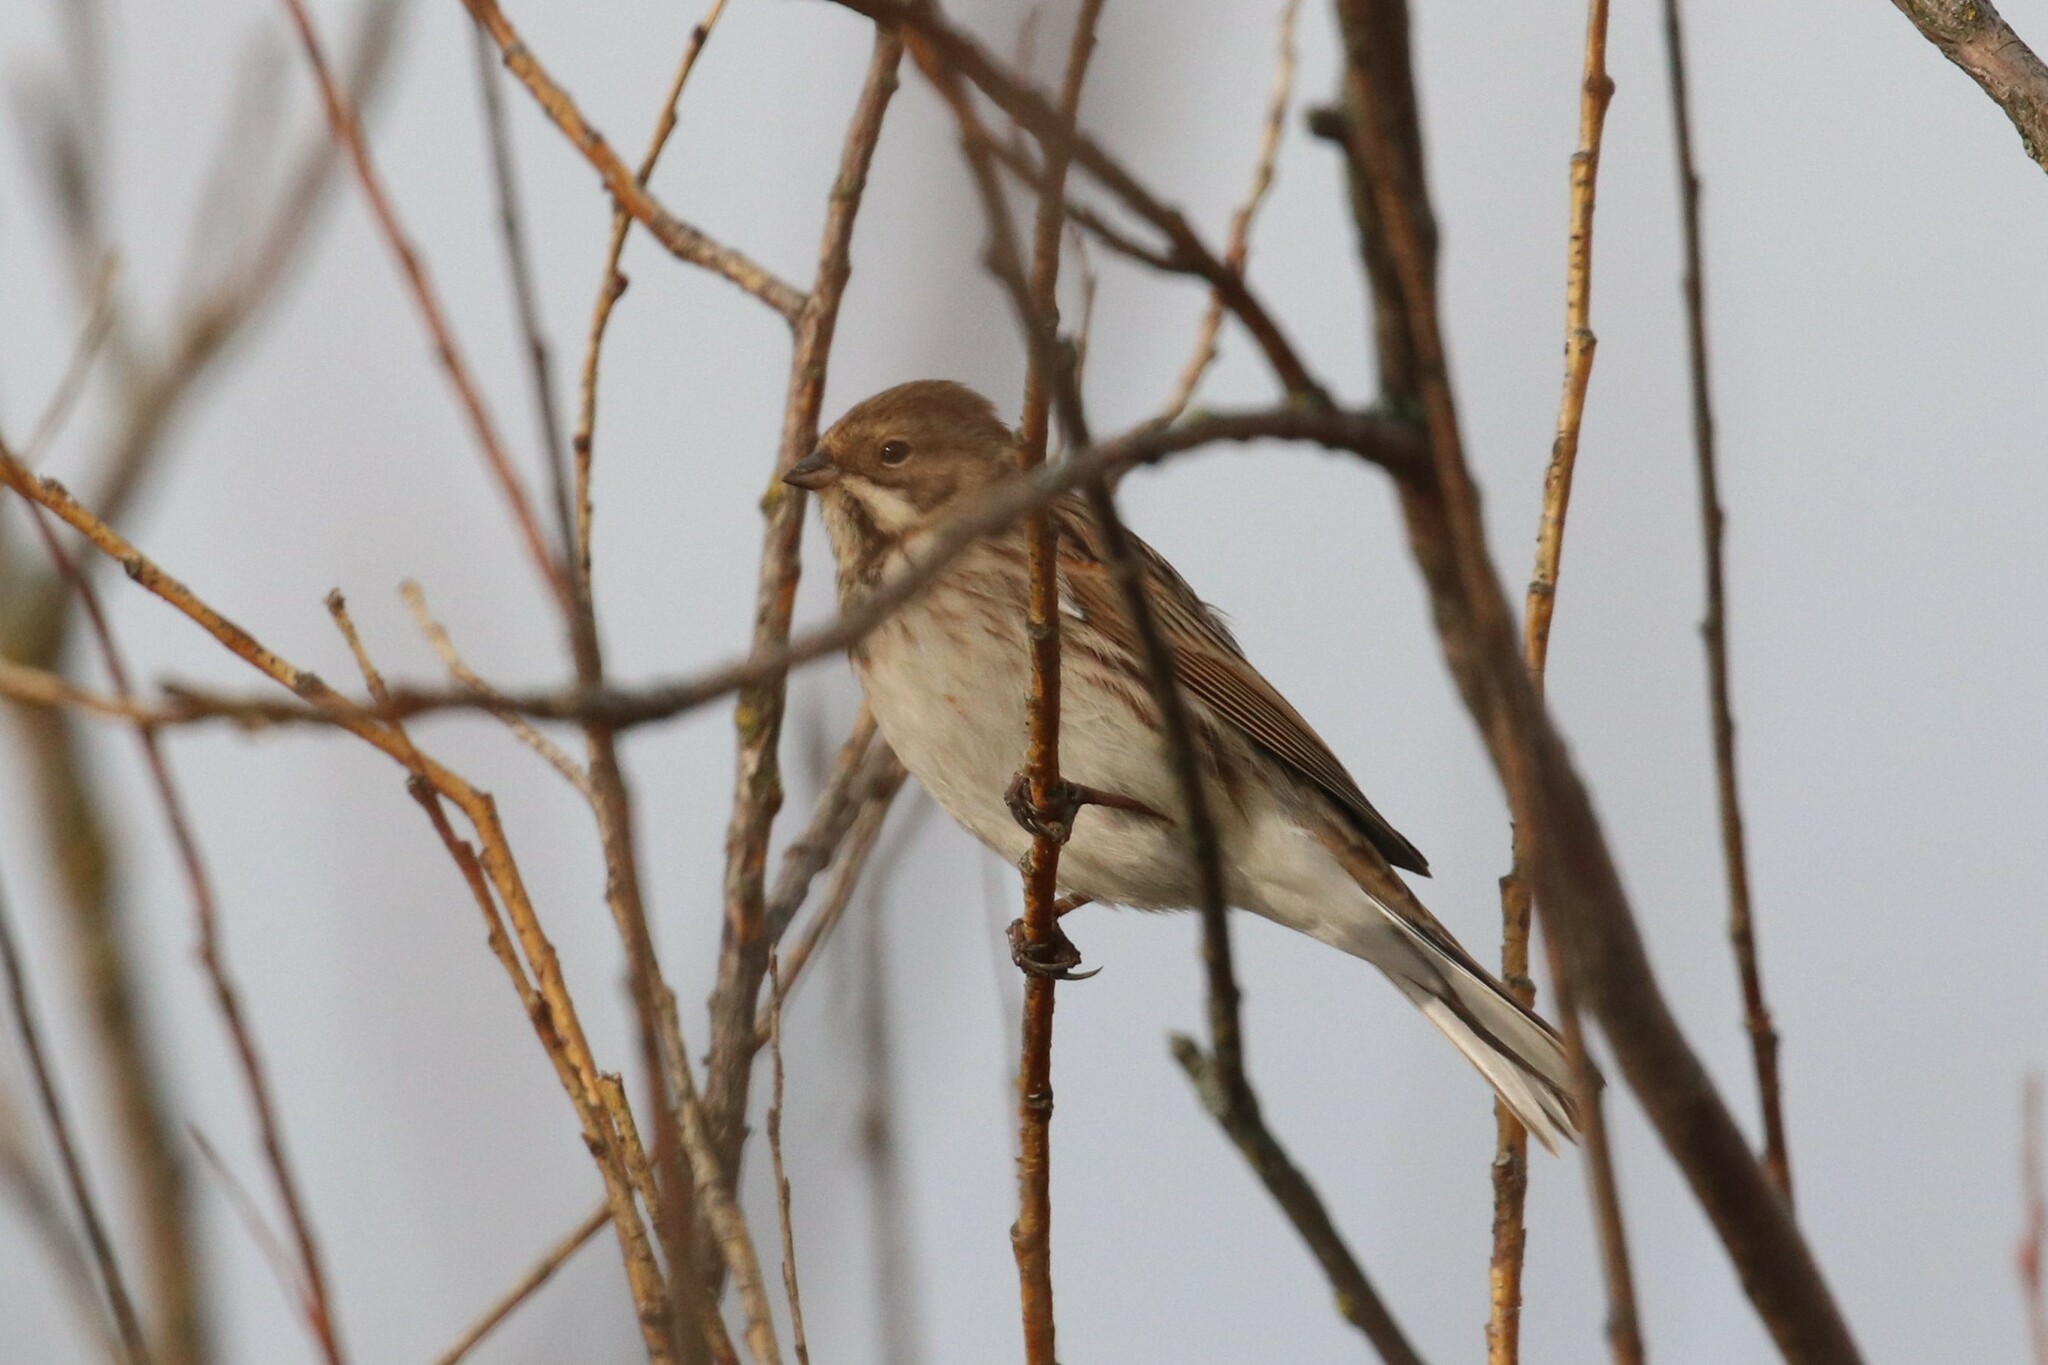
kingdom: Animalia
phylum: Chordata
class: Aves
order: Passeriformes
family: Emberizidae
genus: Emberiza
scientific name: Emberiza schoeniclus
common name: Reed bunting
